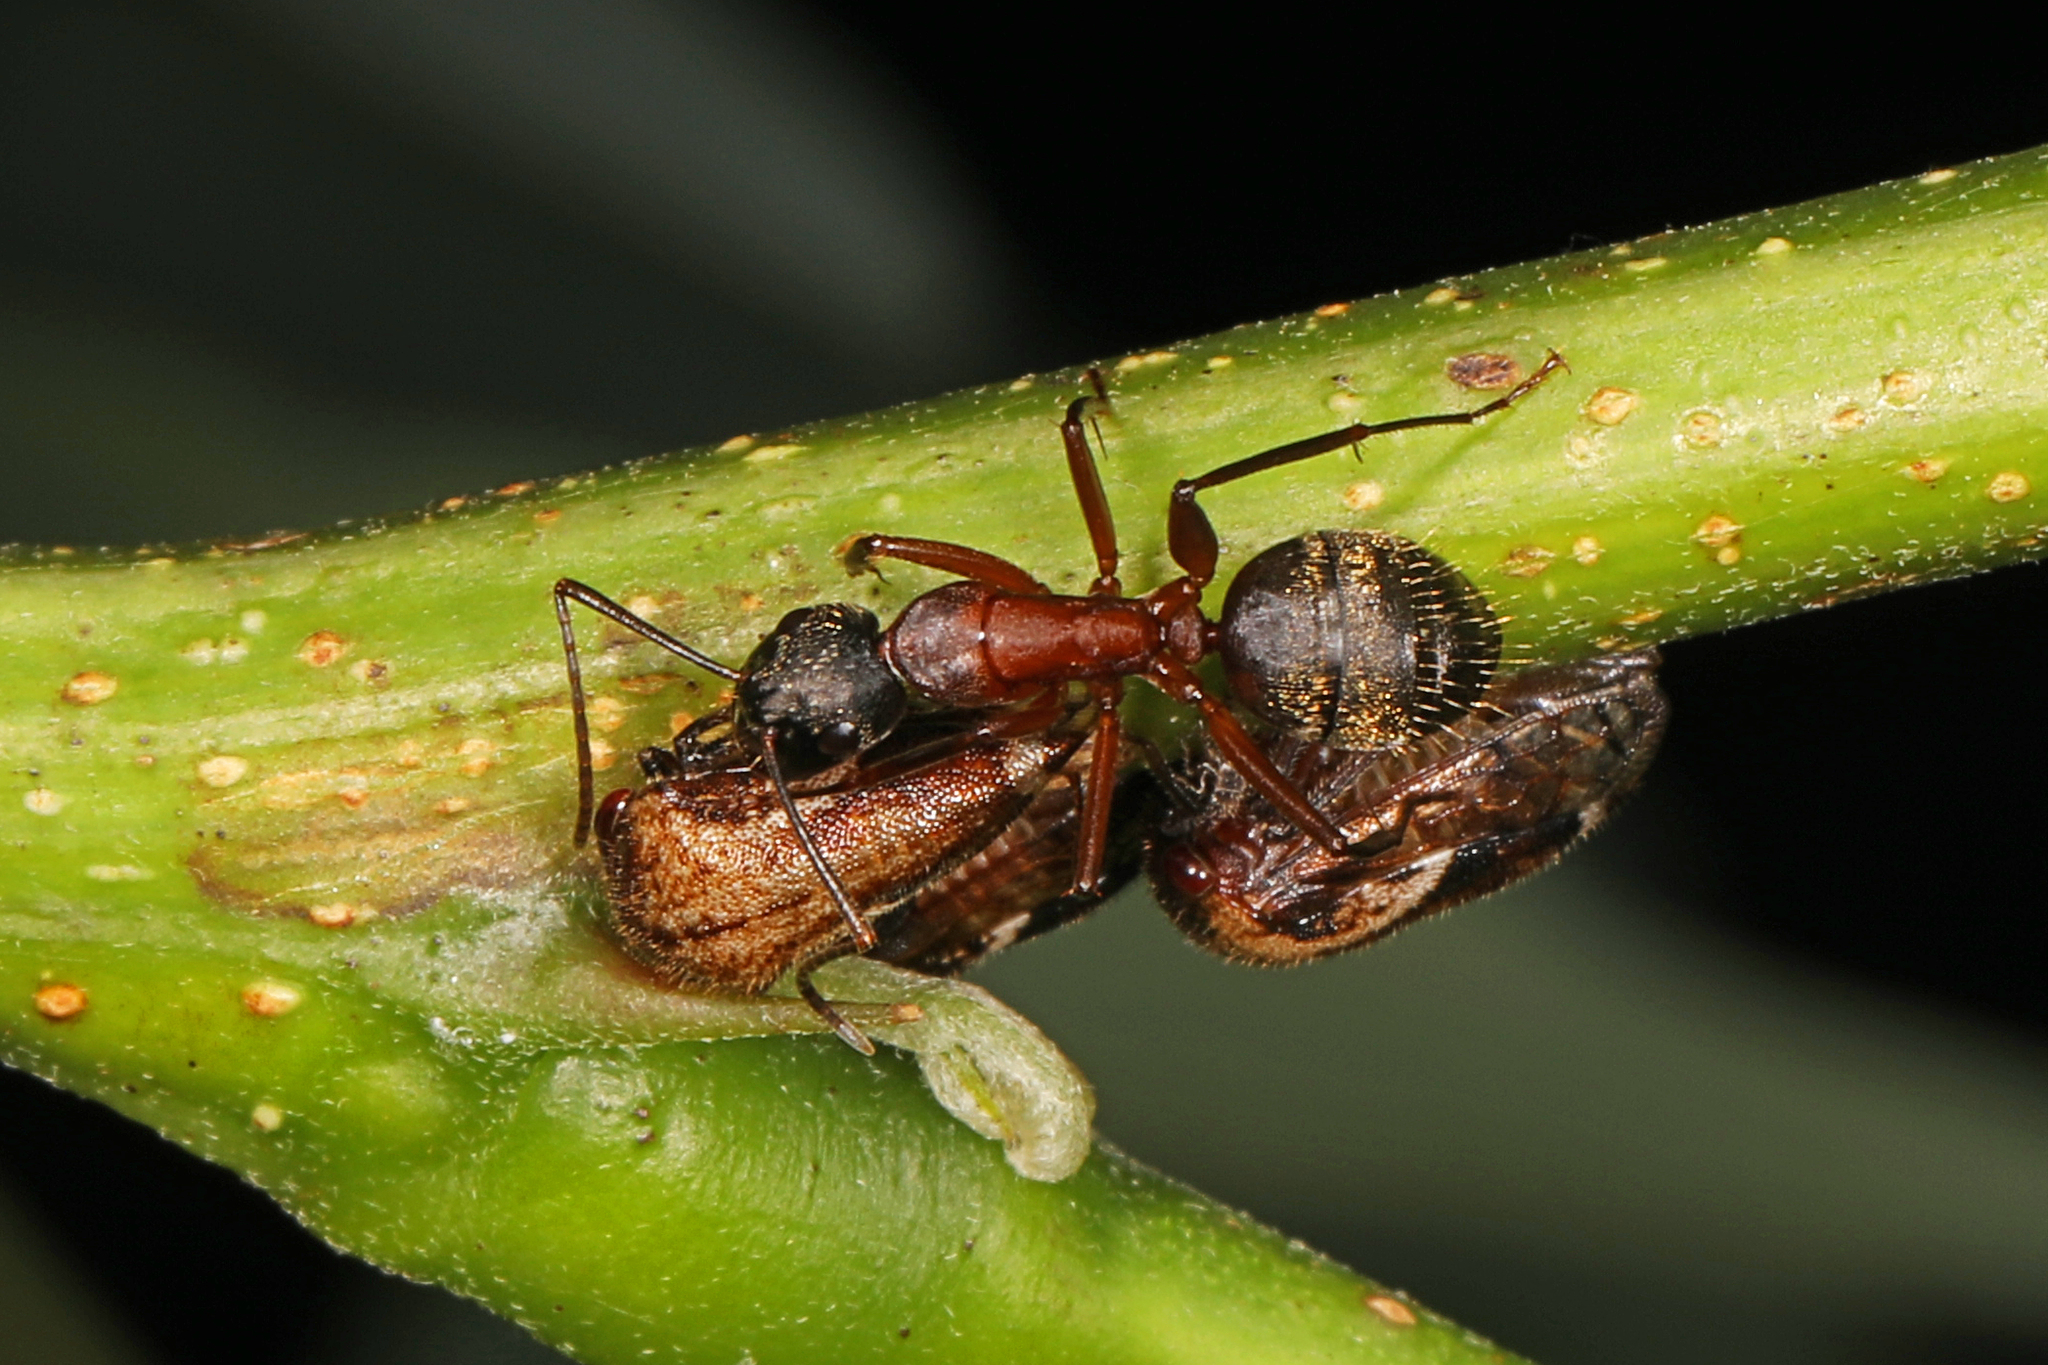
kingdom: Animalia
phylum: Arthropoda
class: Insecta
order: Hymenoptera
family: Formicidae
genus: Camponotus
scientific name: Camponotus chromaiodes
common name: Red carpenter ant
